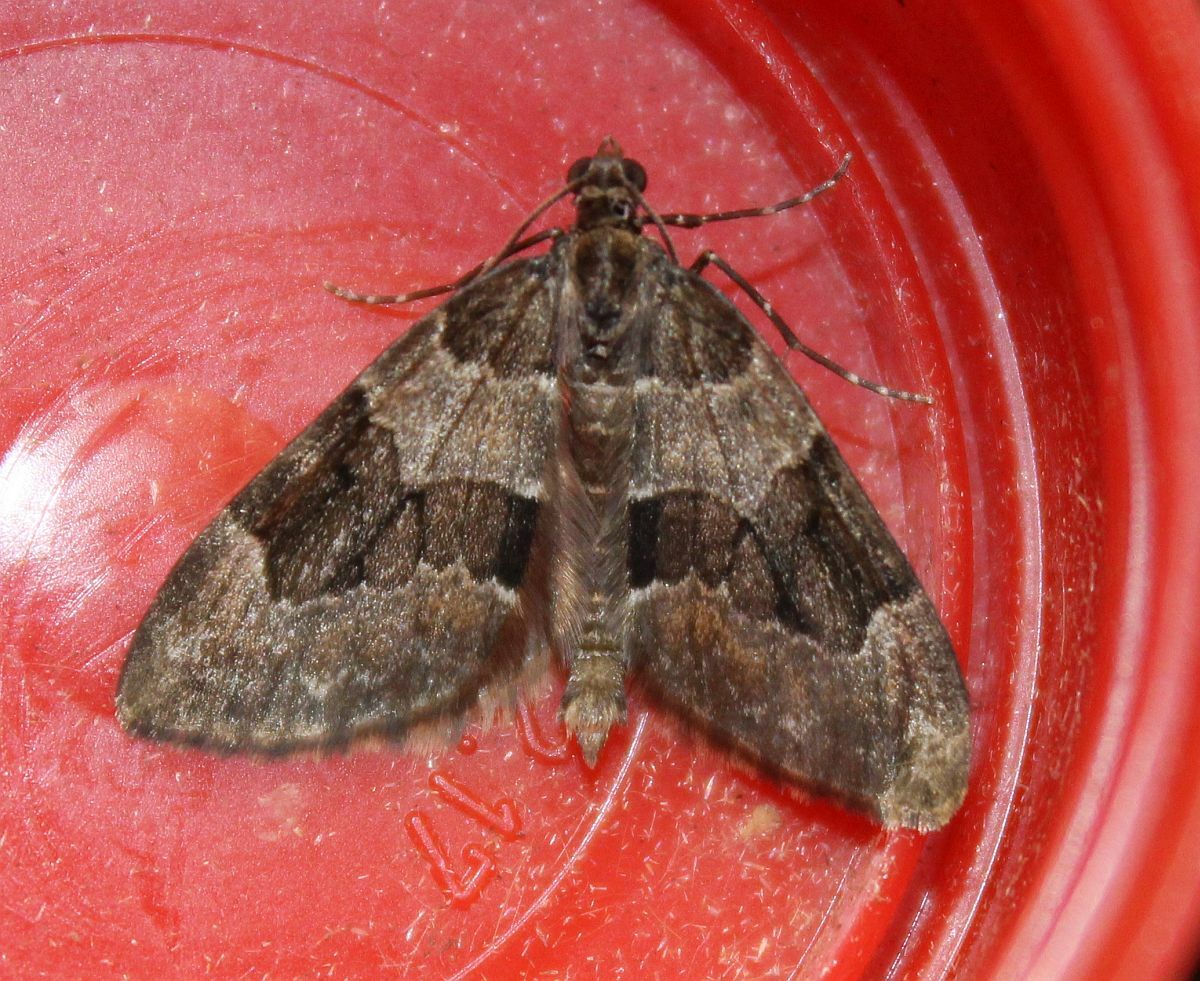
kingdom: Animalia
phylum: Arthropoda
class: Insecta
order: Lepidoptera
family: Geometridae
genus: Thera
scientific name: Thera britannica
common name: Spruce carpet
